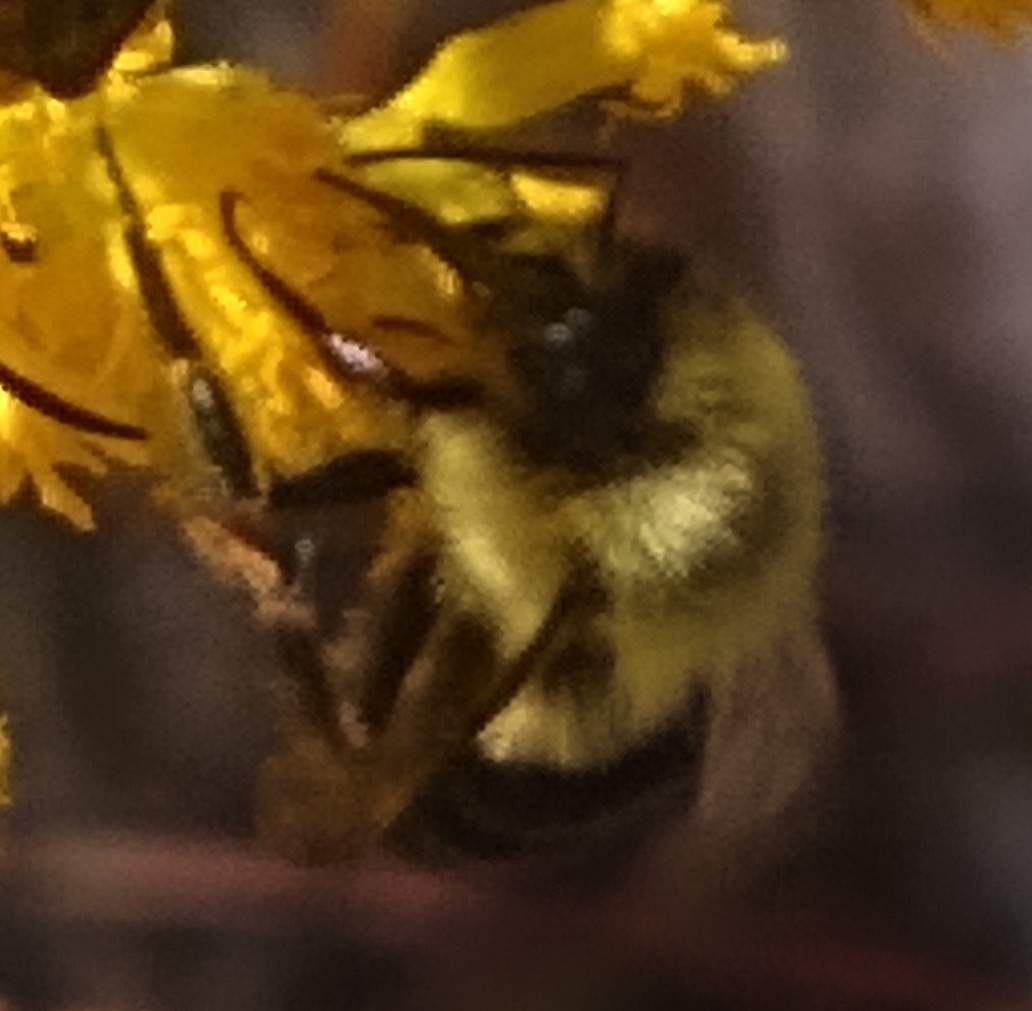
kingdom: Animalia
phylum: Arthropoda
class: Insecta
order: Hymenoptera
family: Apidae
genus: Bombus
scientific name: Bombus impatiens
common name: Common eastern bumble bee
